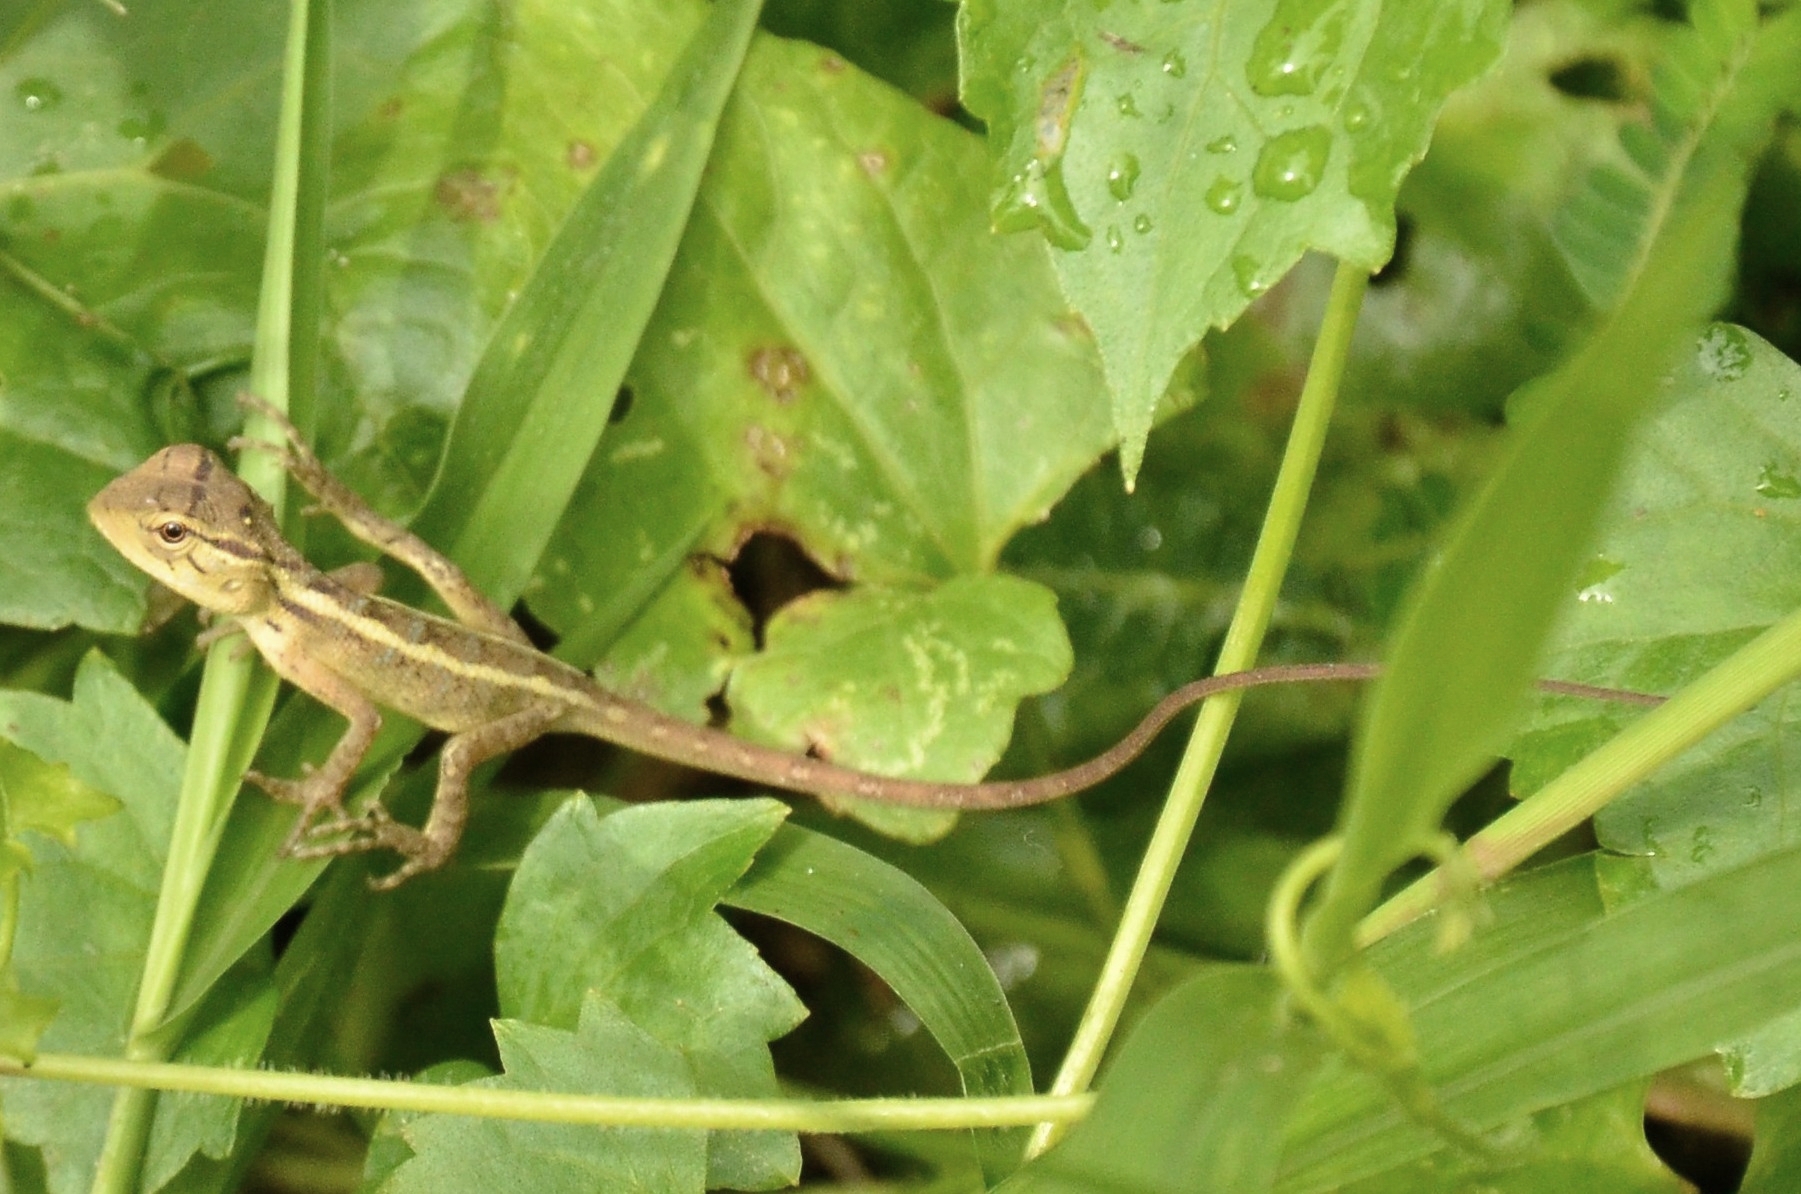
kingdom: Animalia
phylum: Chordata
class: Squamata
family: Agamidae
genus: Calotes
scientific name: Calotes versicolor
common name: Oriental garden lizard
